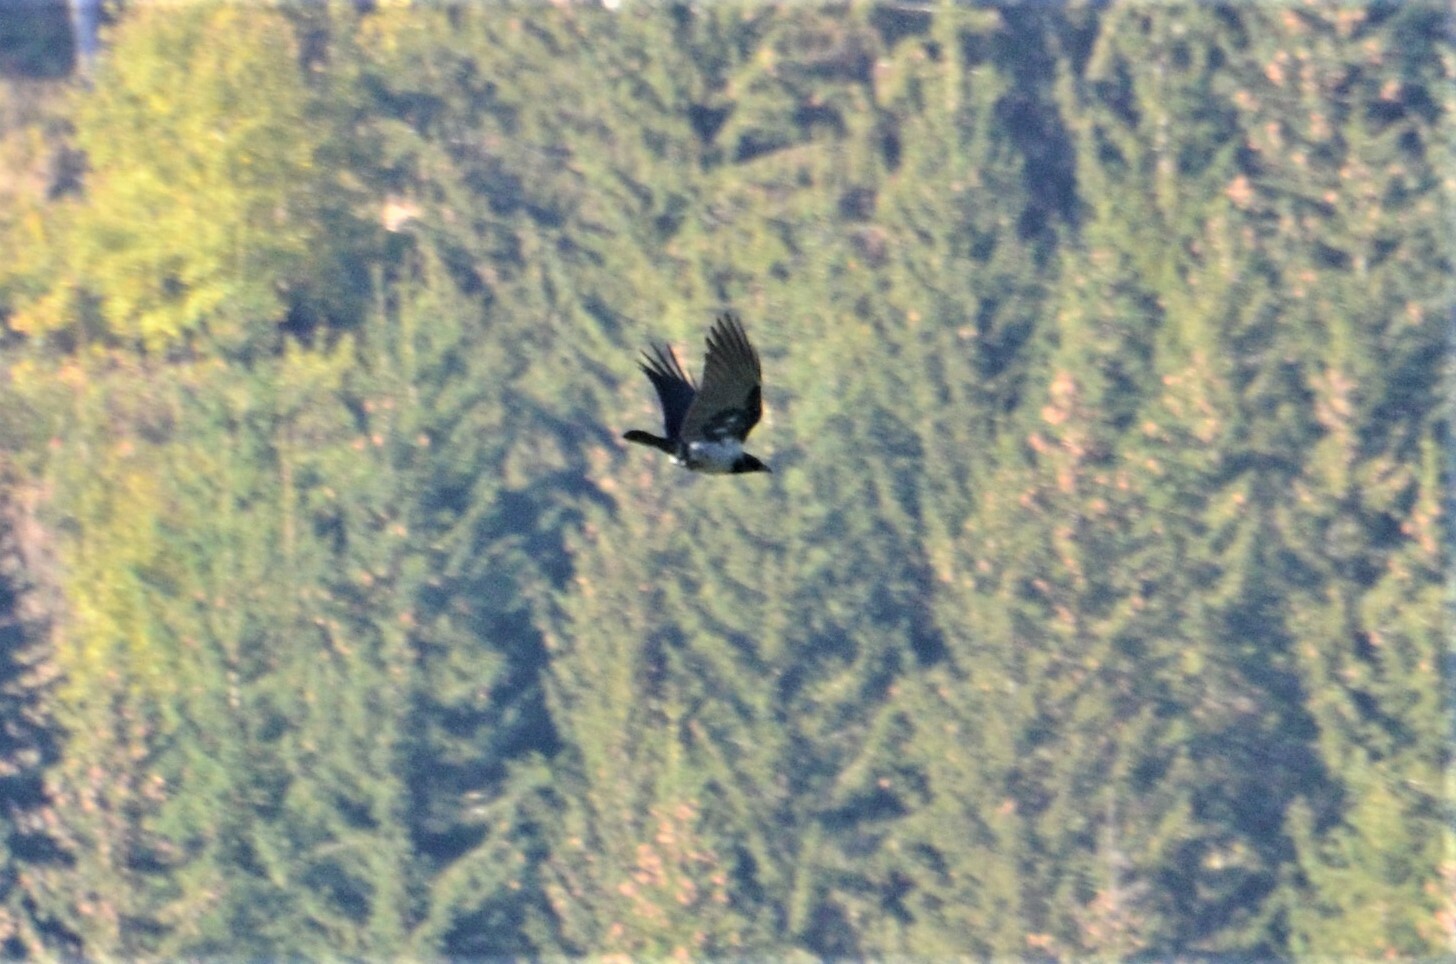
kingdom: Animalia
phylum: Chordata
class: Aves
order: Passeriformes
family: Corvidae
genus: Corvus
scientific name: Corvus cornix
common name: Hooded crow
